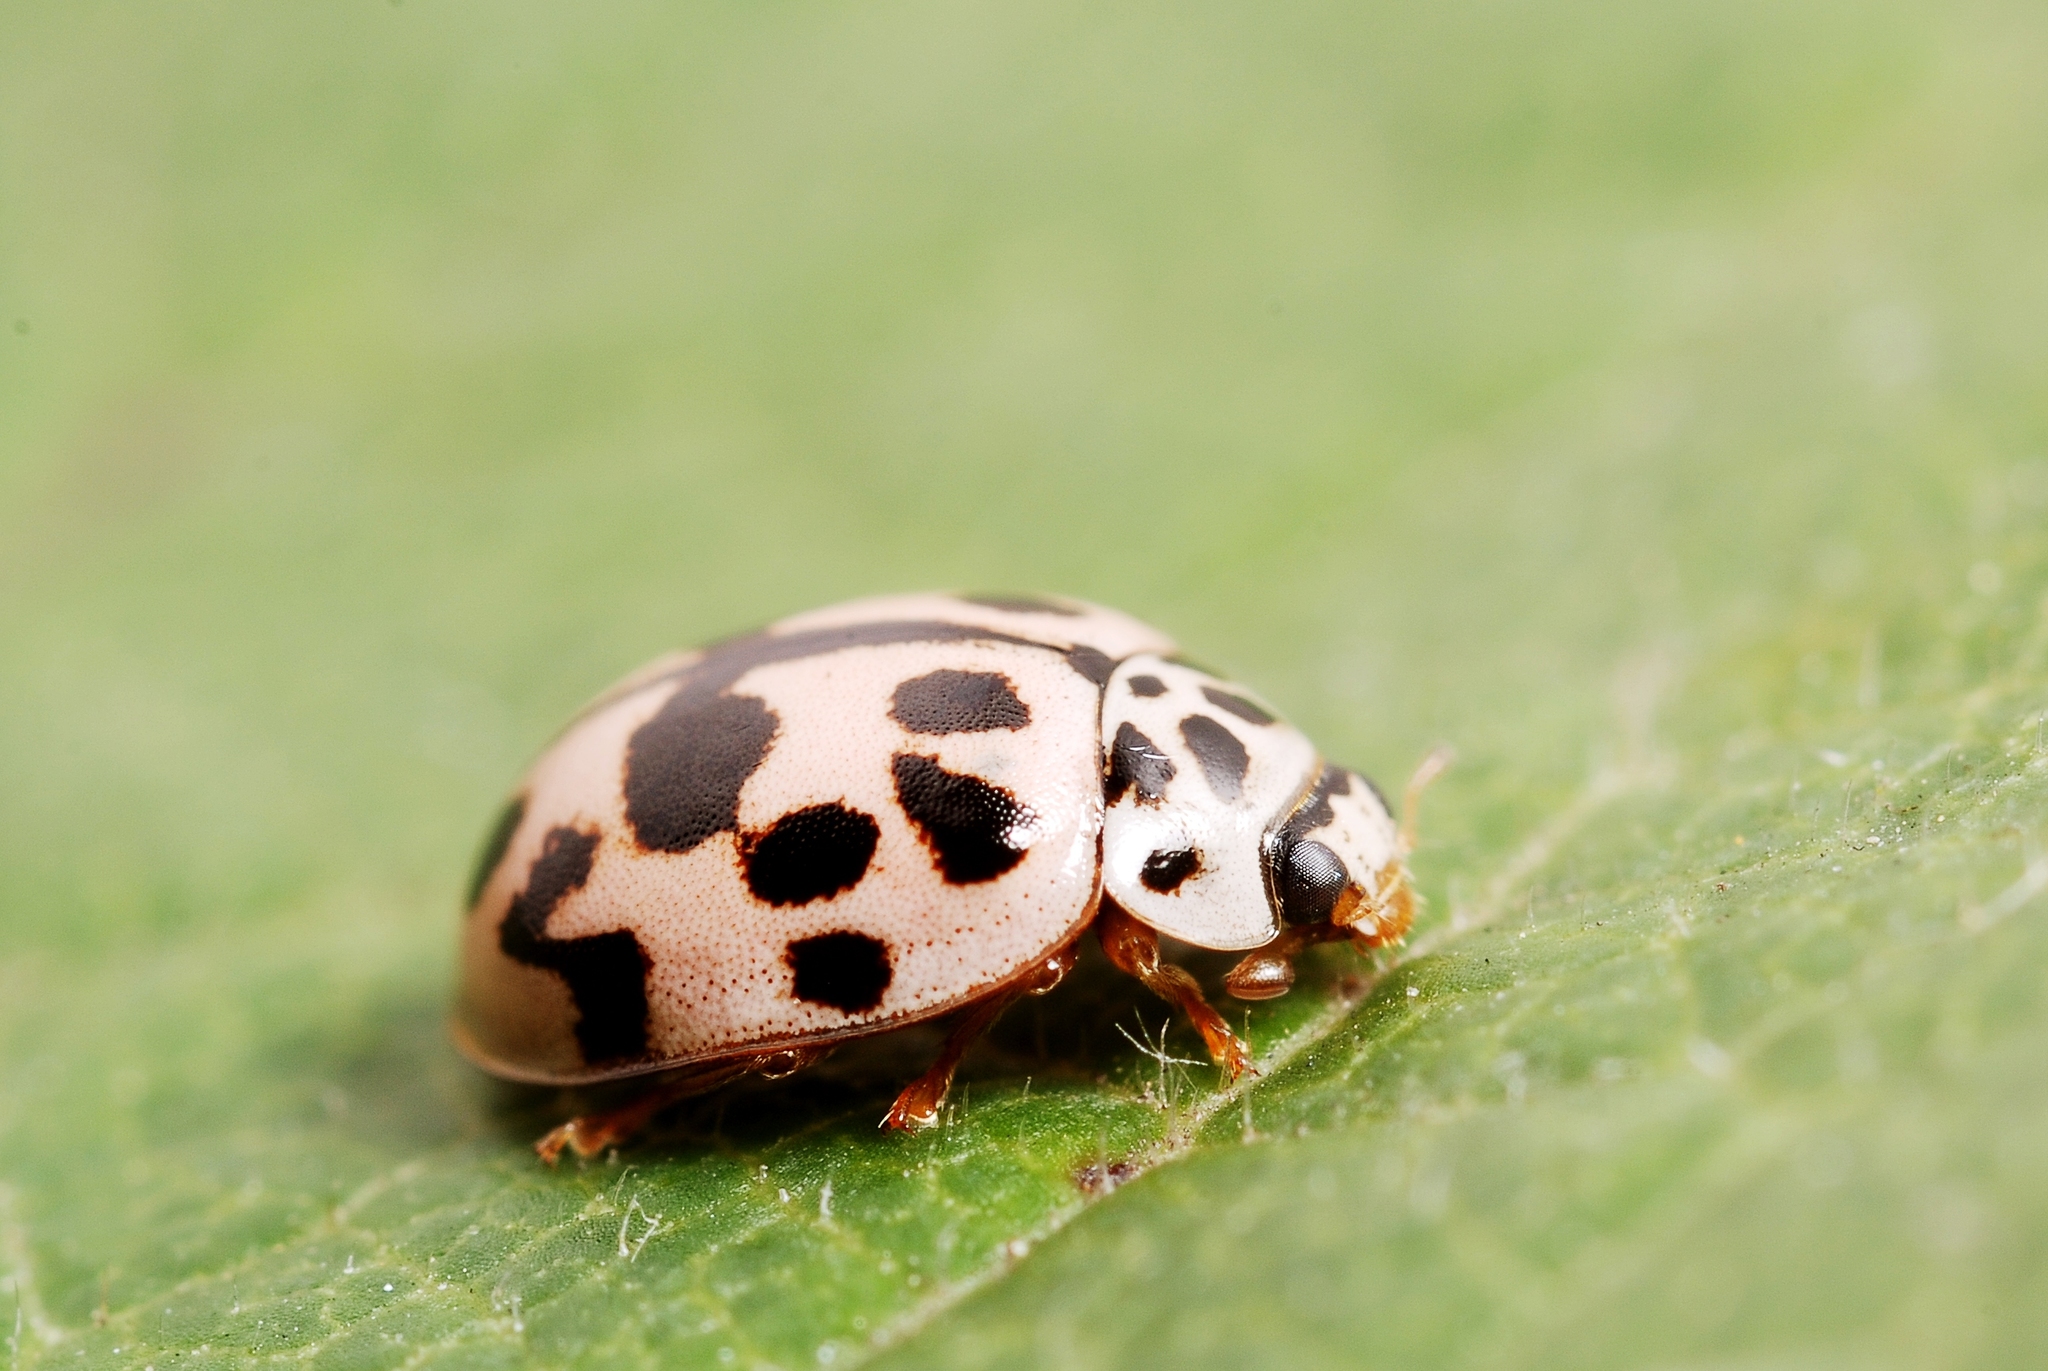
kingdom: Animalia
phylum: Arthropoda
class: Insecta
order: Coleoptera
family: Coccinellidae
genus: Oenopia
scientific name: Oenopia conglobata
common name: Ladybird beetle
